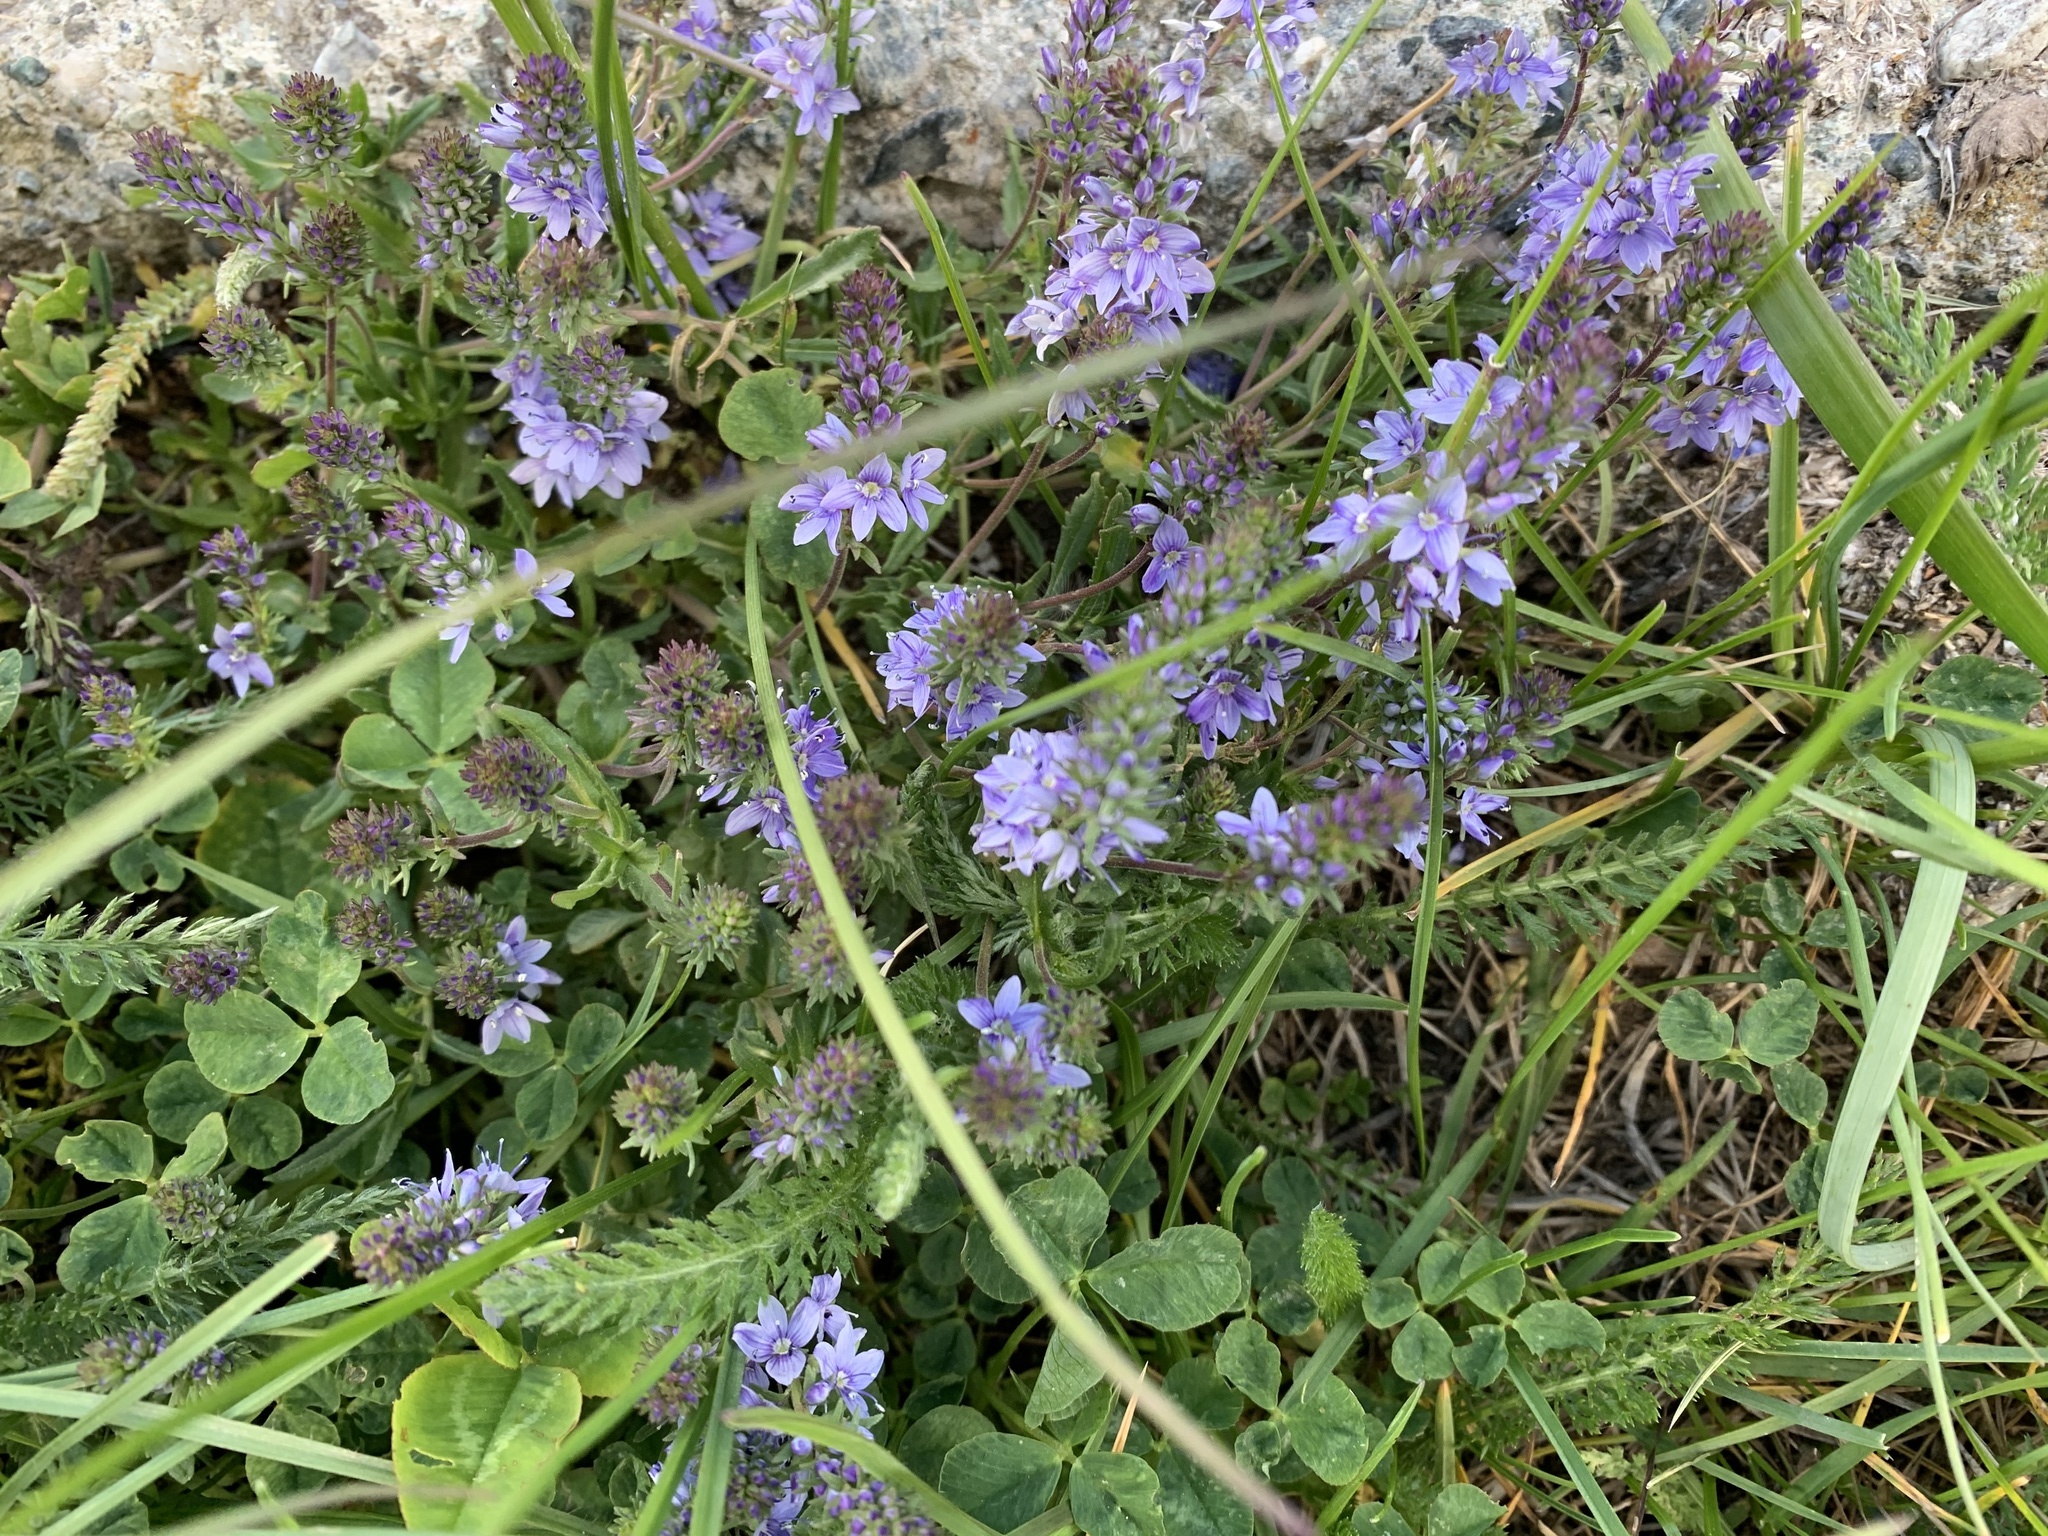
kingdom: Plantae
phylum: Tracheophyta
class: Magnoliopsida
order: Lamiales
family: Plantaginaceae
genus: Veronica
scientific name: Veronica prostrata
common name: Prostrate speedwell
